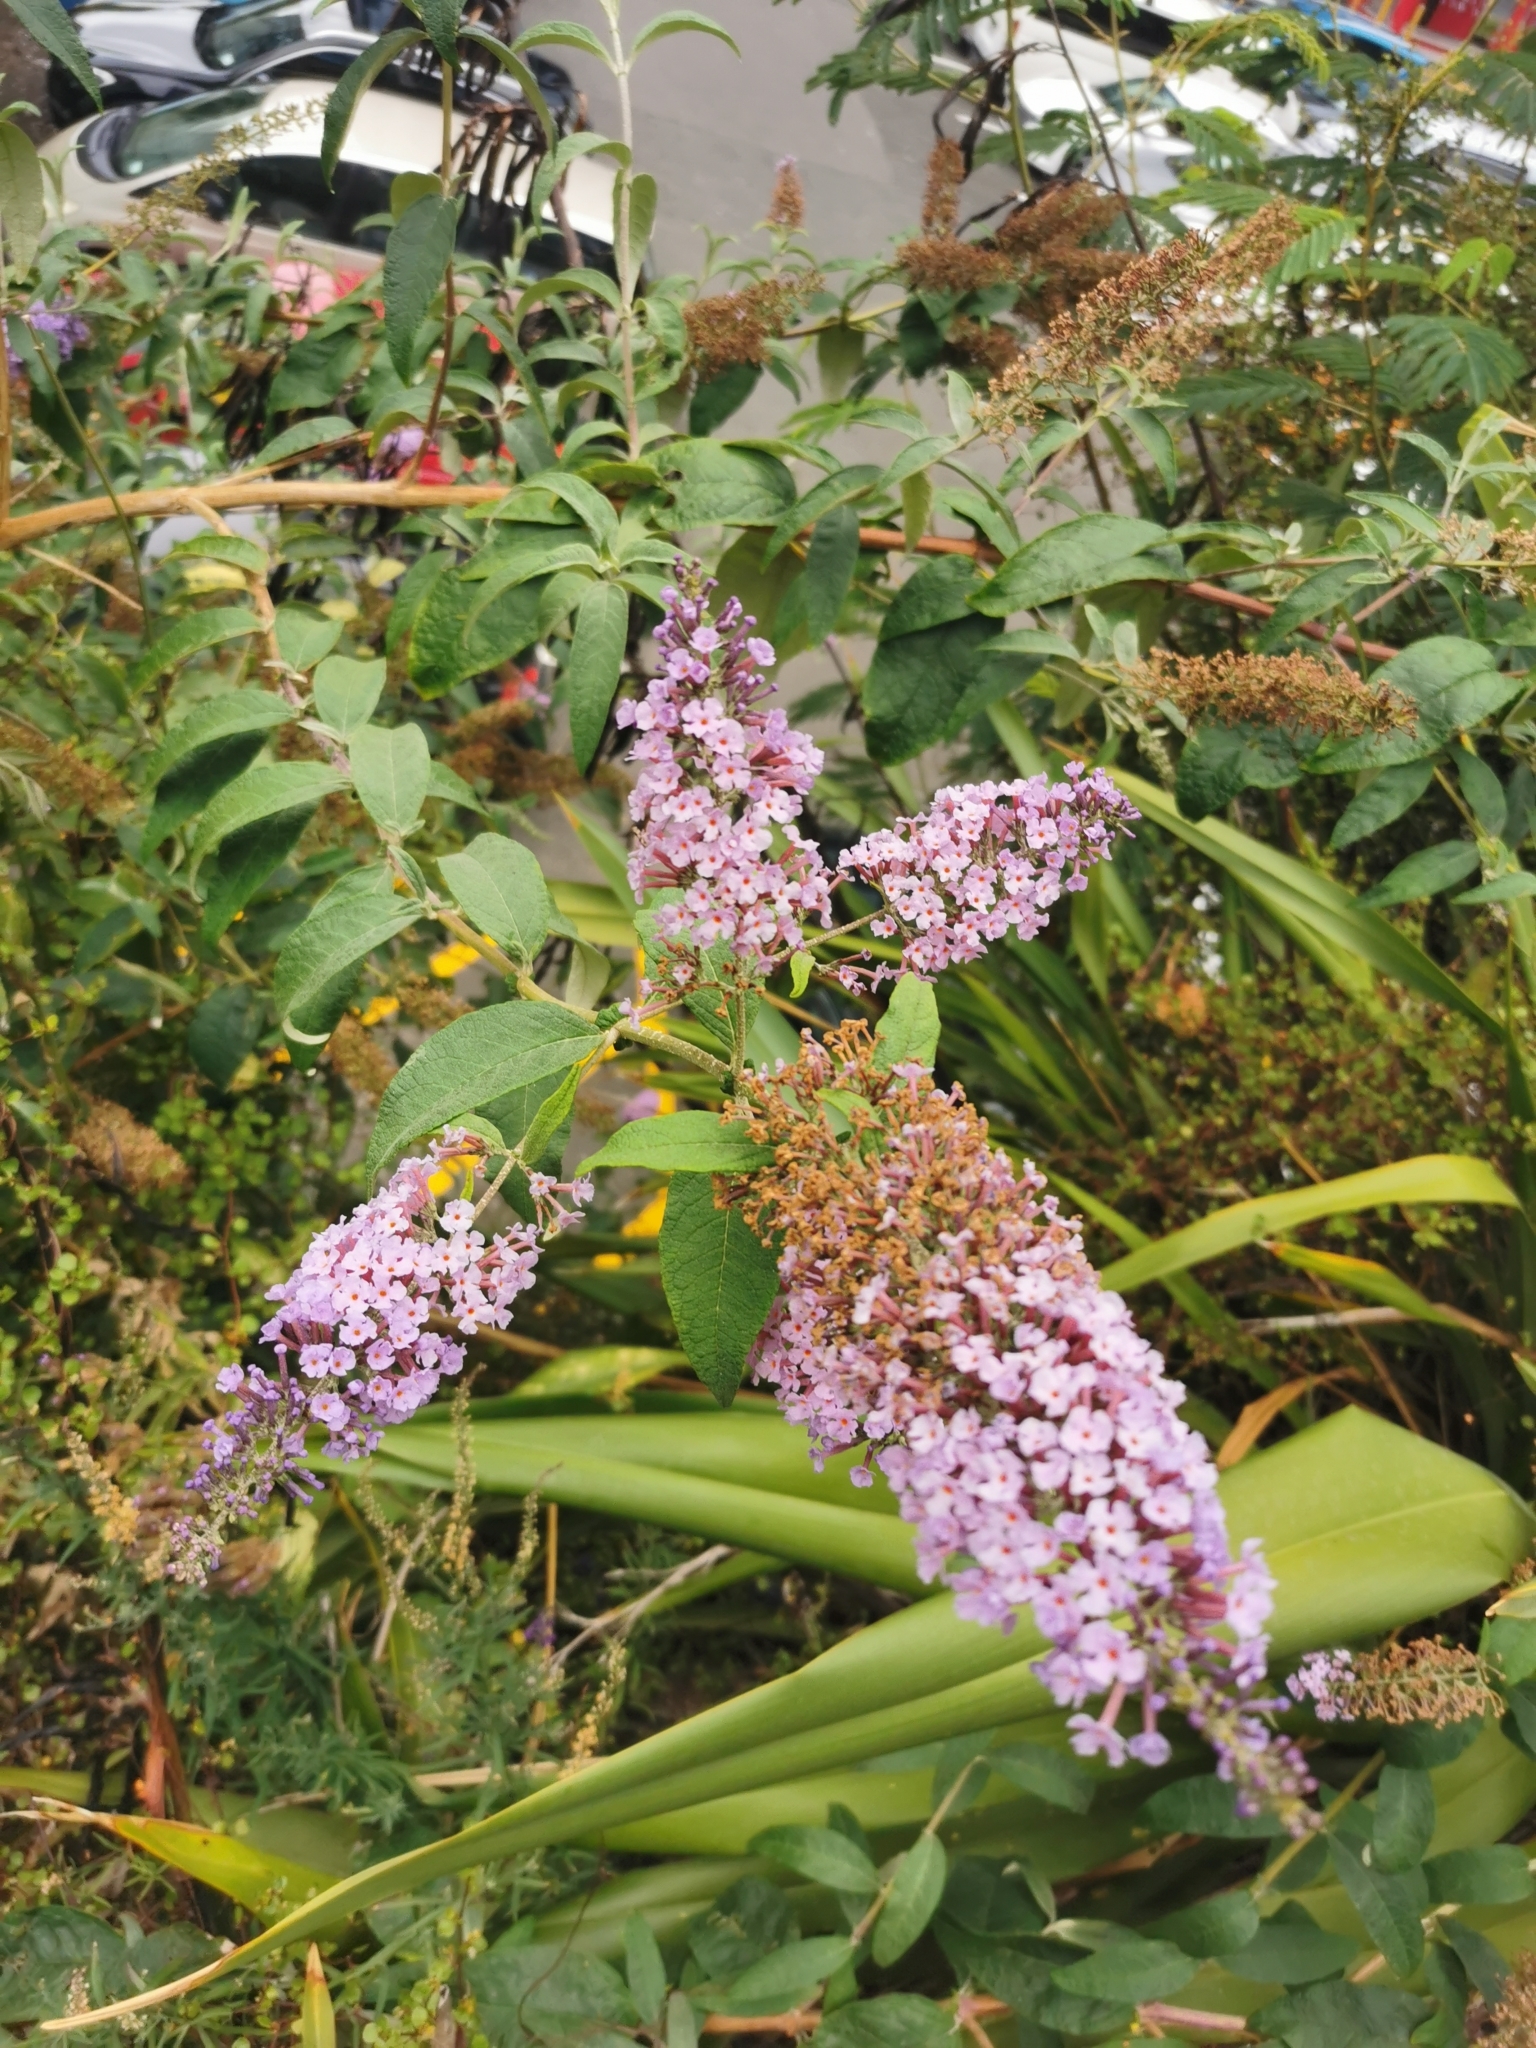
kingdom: Plantae
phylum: Tracheophyta
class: Magnoliopsida
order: Lamiales
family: Scrophulariaceae
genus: Buddleja
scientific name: Buddleja davidii
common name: Butterfly-bush
